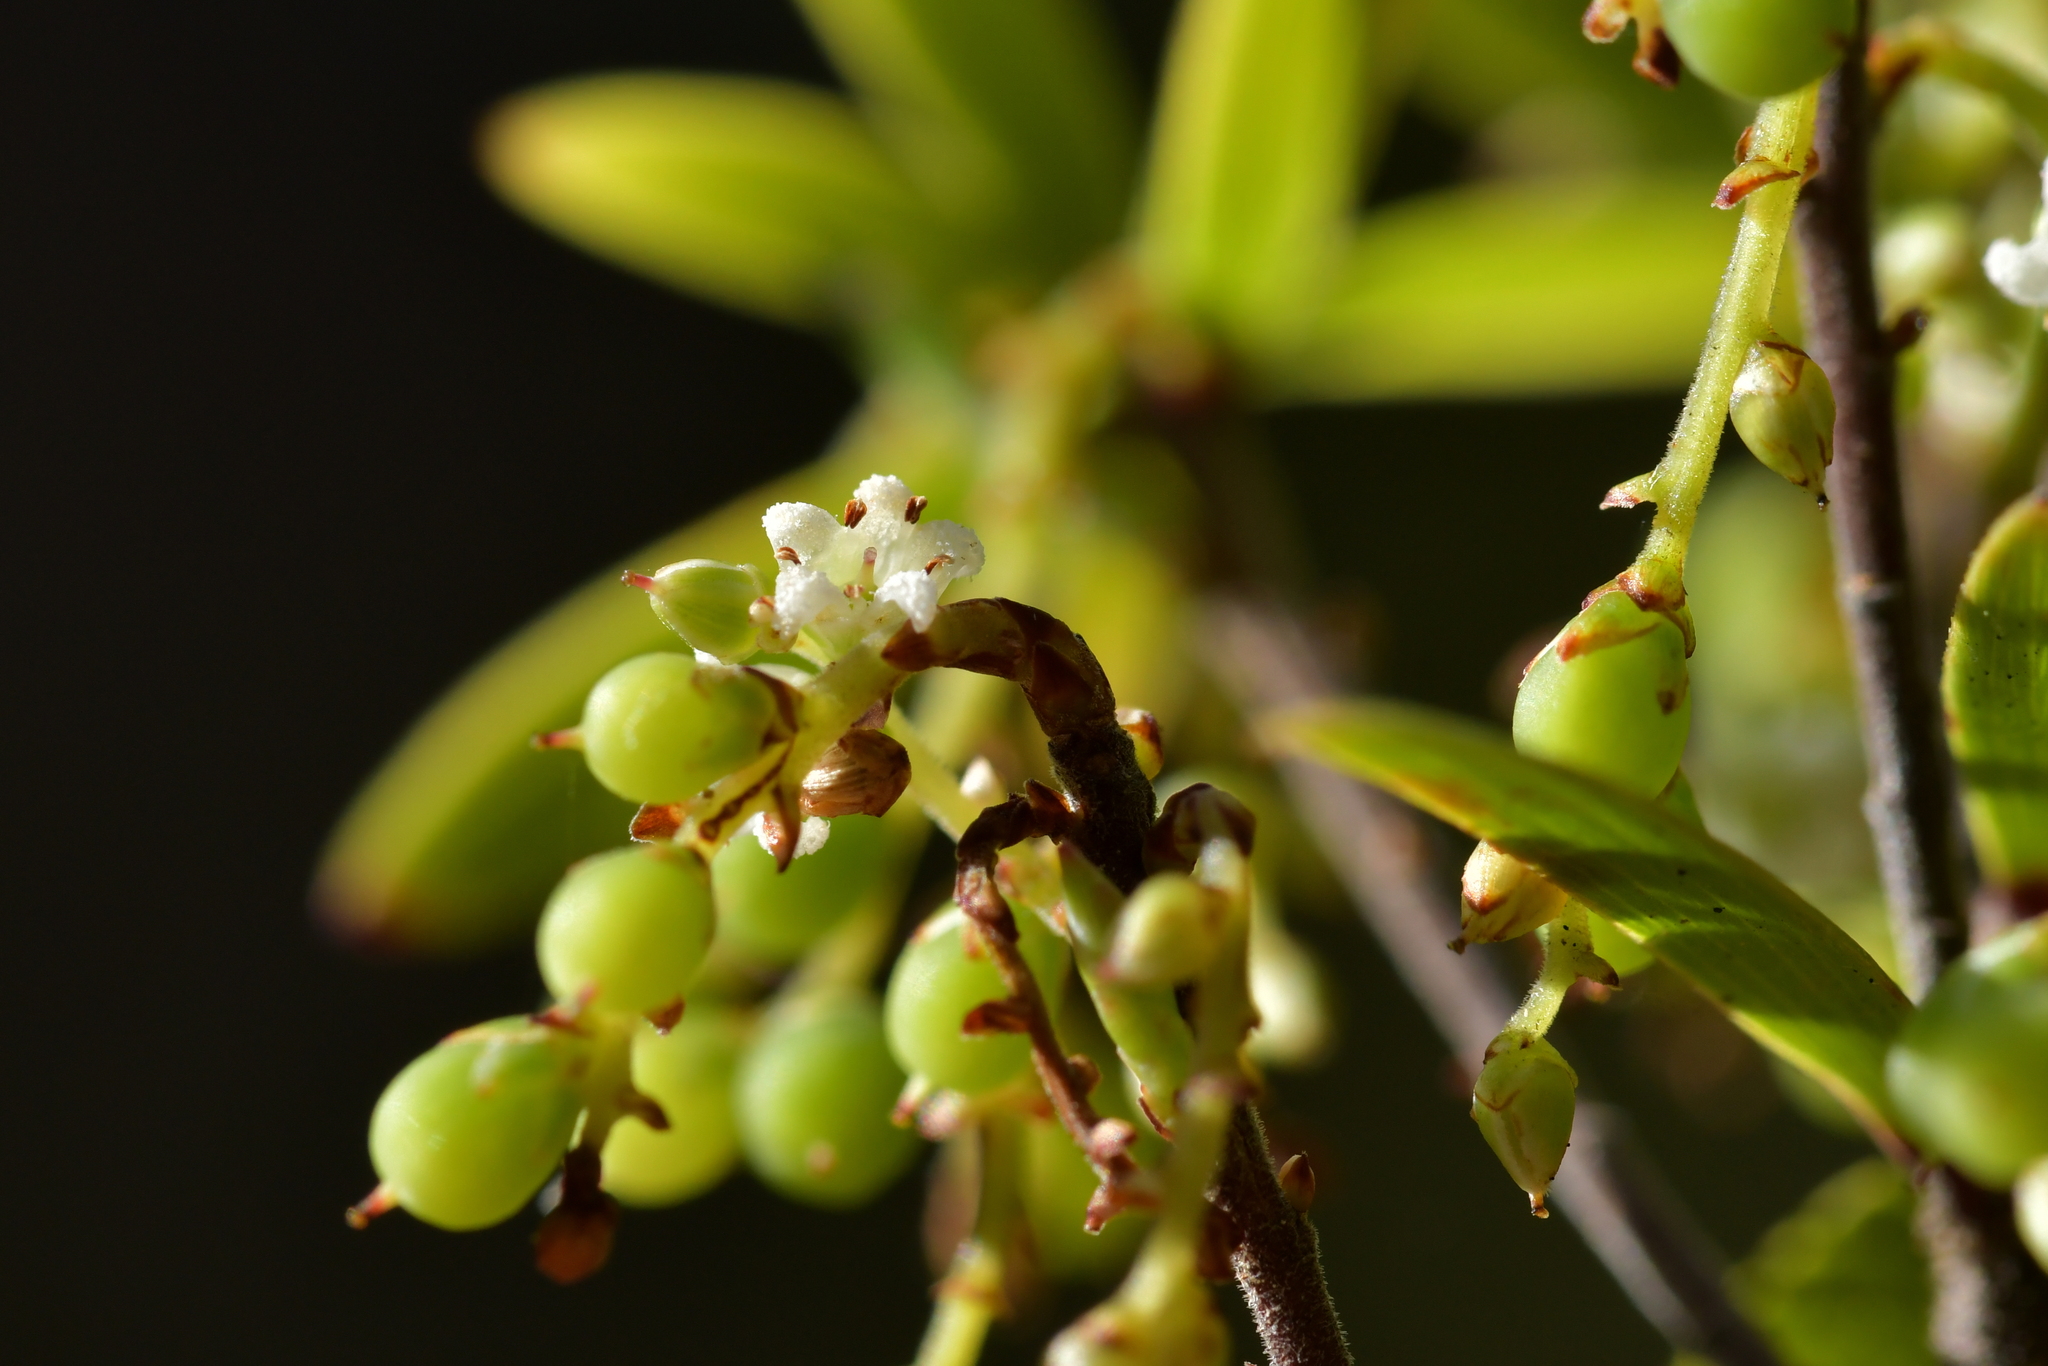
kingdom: Plantae
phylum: Tracheophyta
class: Magnoliopsida
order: Ericales
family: Ericaceae
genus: Leucopogon
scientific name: Leucopogon fasciculatus
